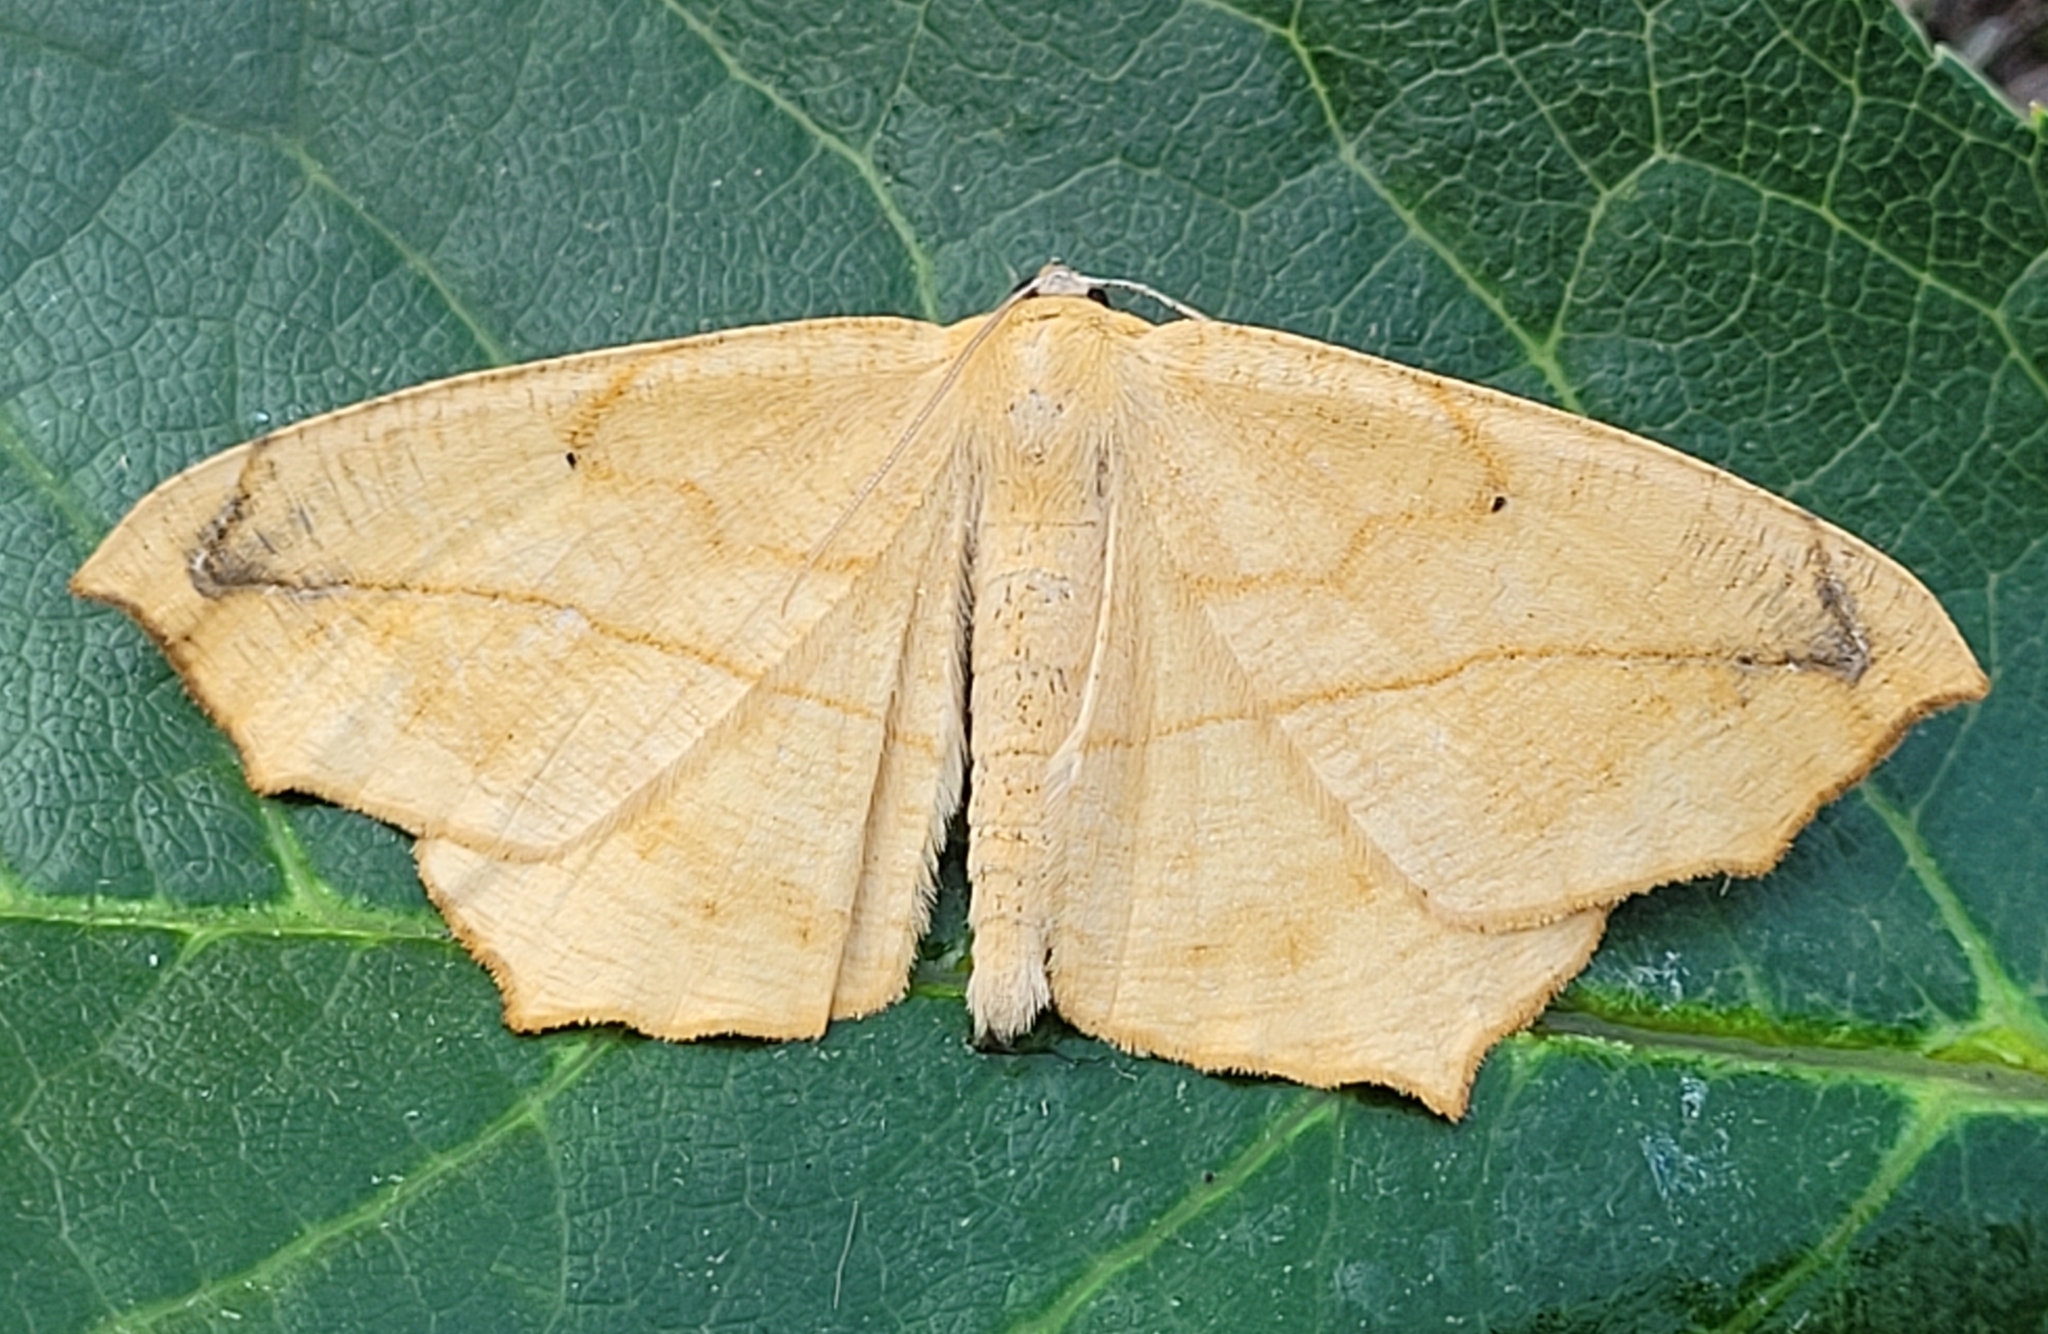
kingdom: Animalia
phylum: Arthropoda
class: Insecta
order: Lepidoptera
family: Geometridae
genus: Prochoerodes
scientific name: Prochoerodes lineola
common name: Large maple spanworm
